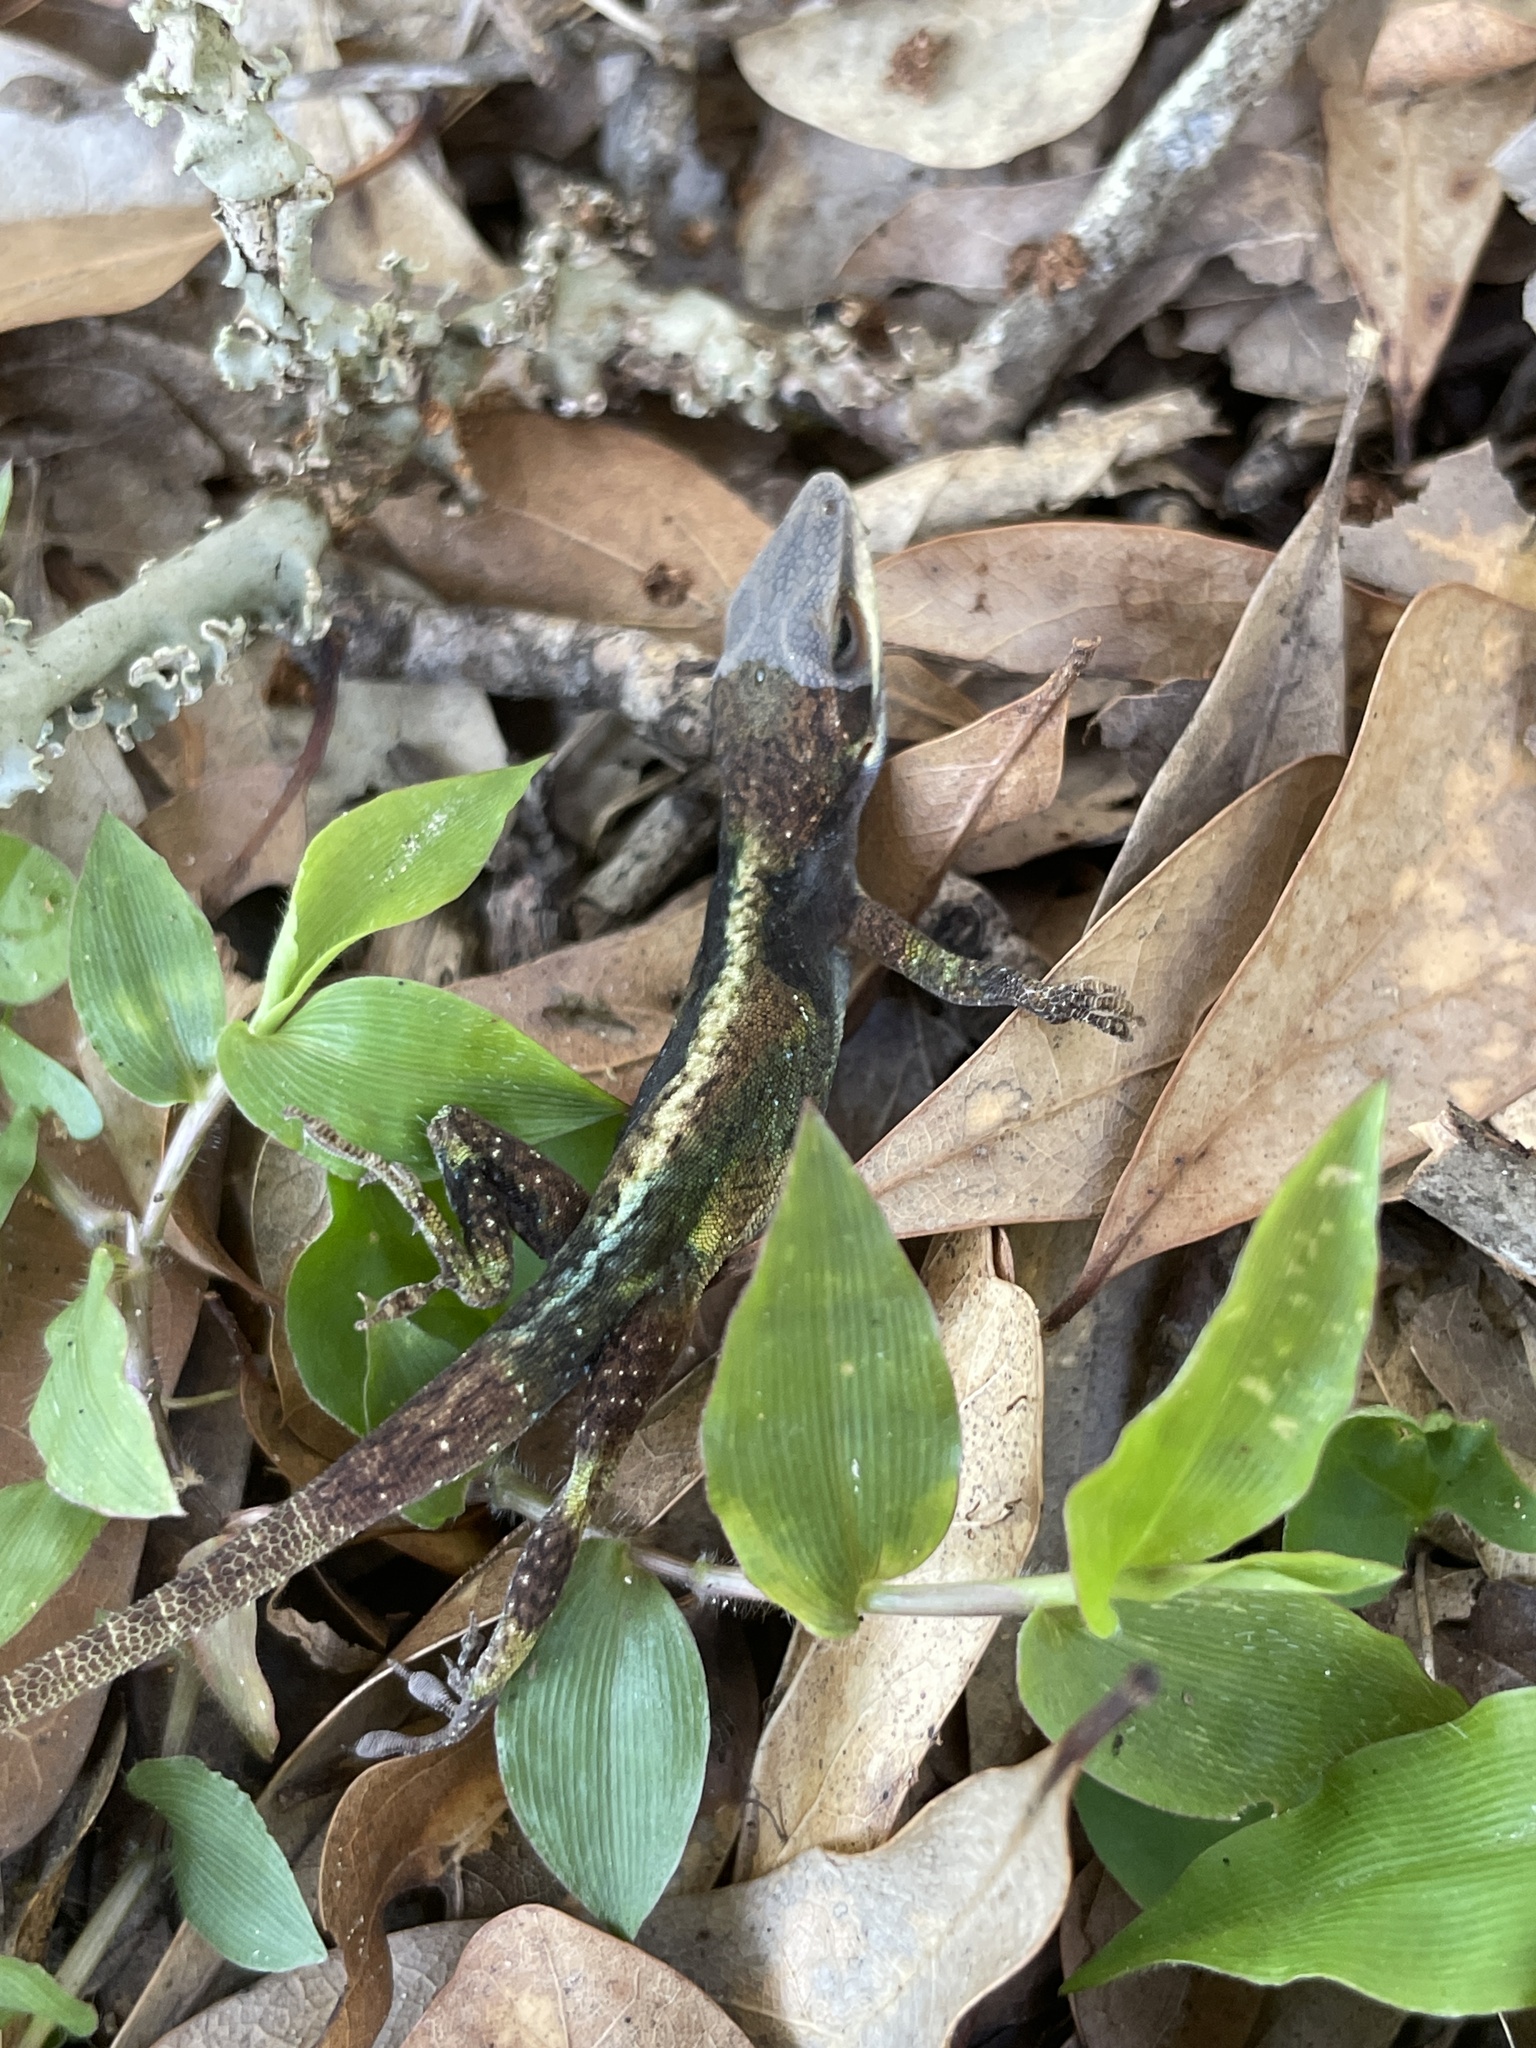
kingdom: Animalia
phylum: Chordata
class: Squamata
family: Dactyloidae
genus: Anolis
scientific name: Anolis carolinensis
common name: Green anole
